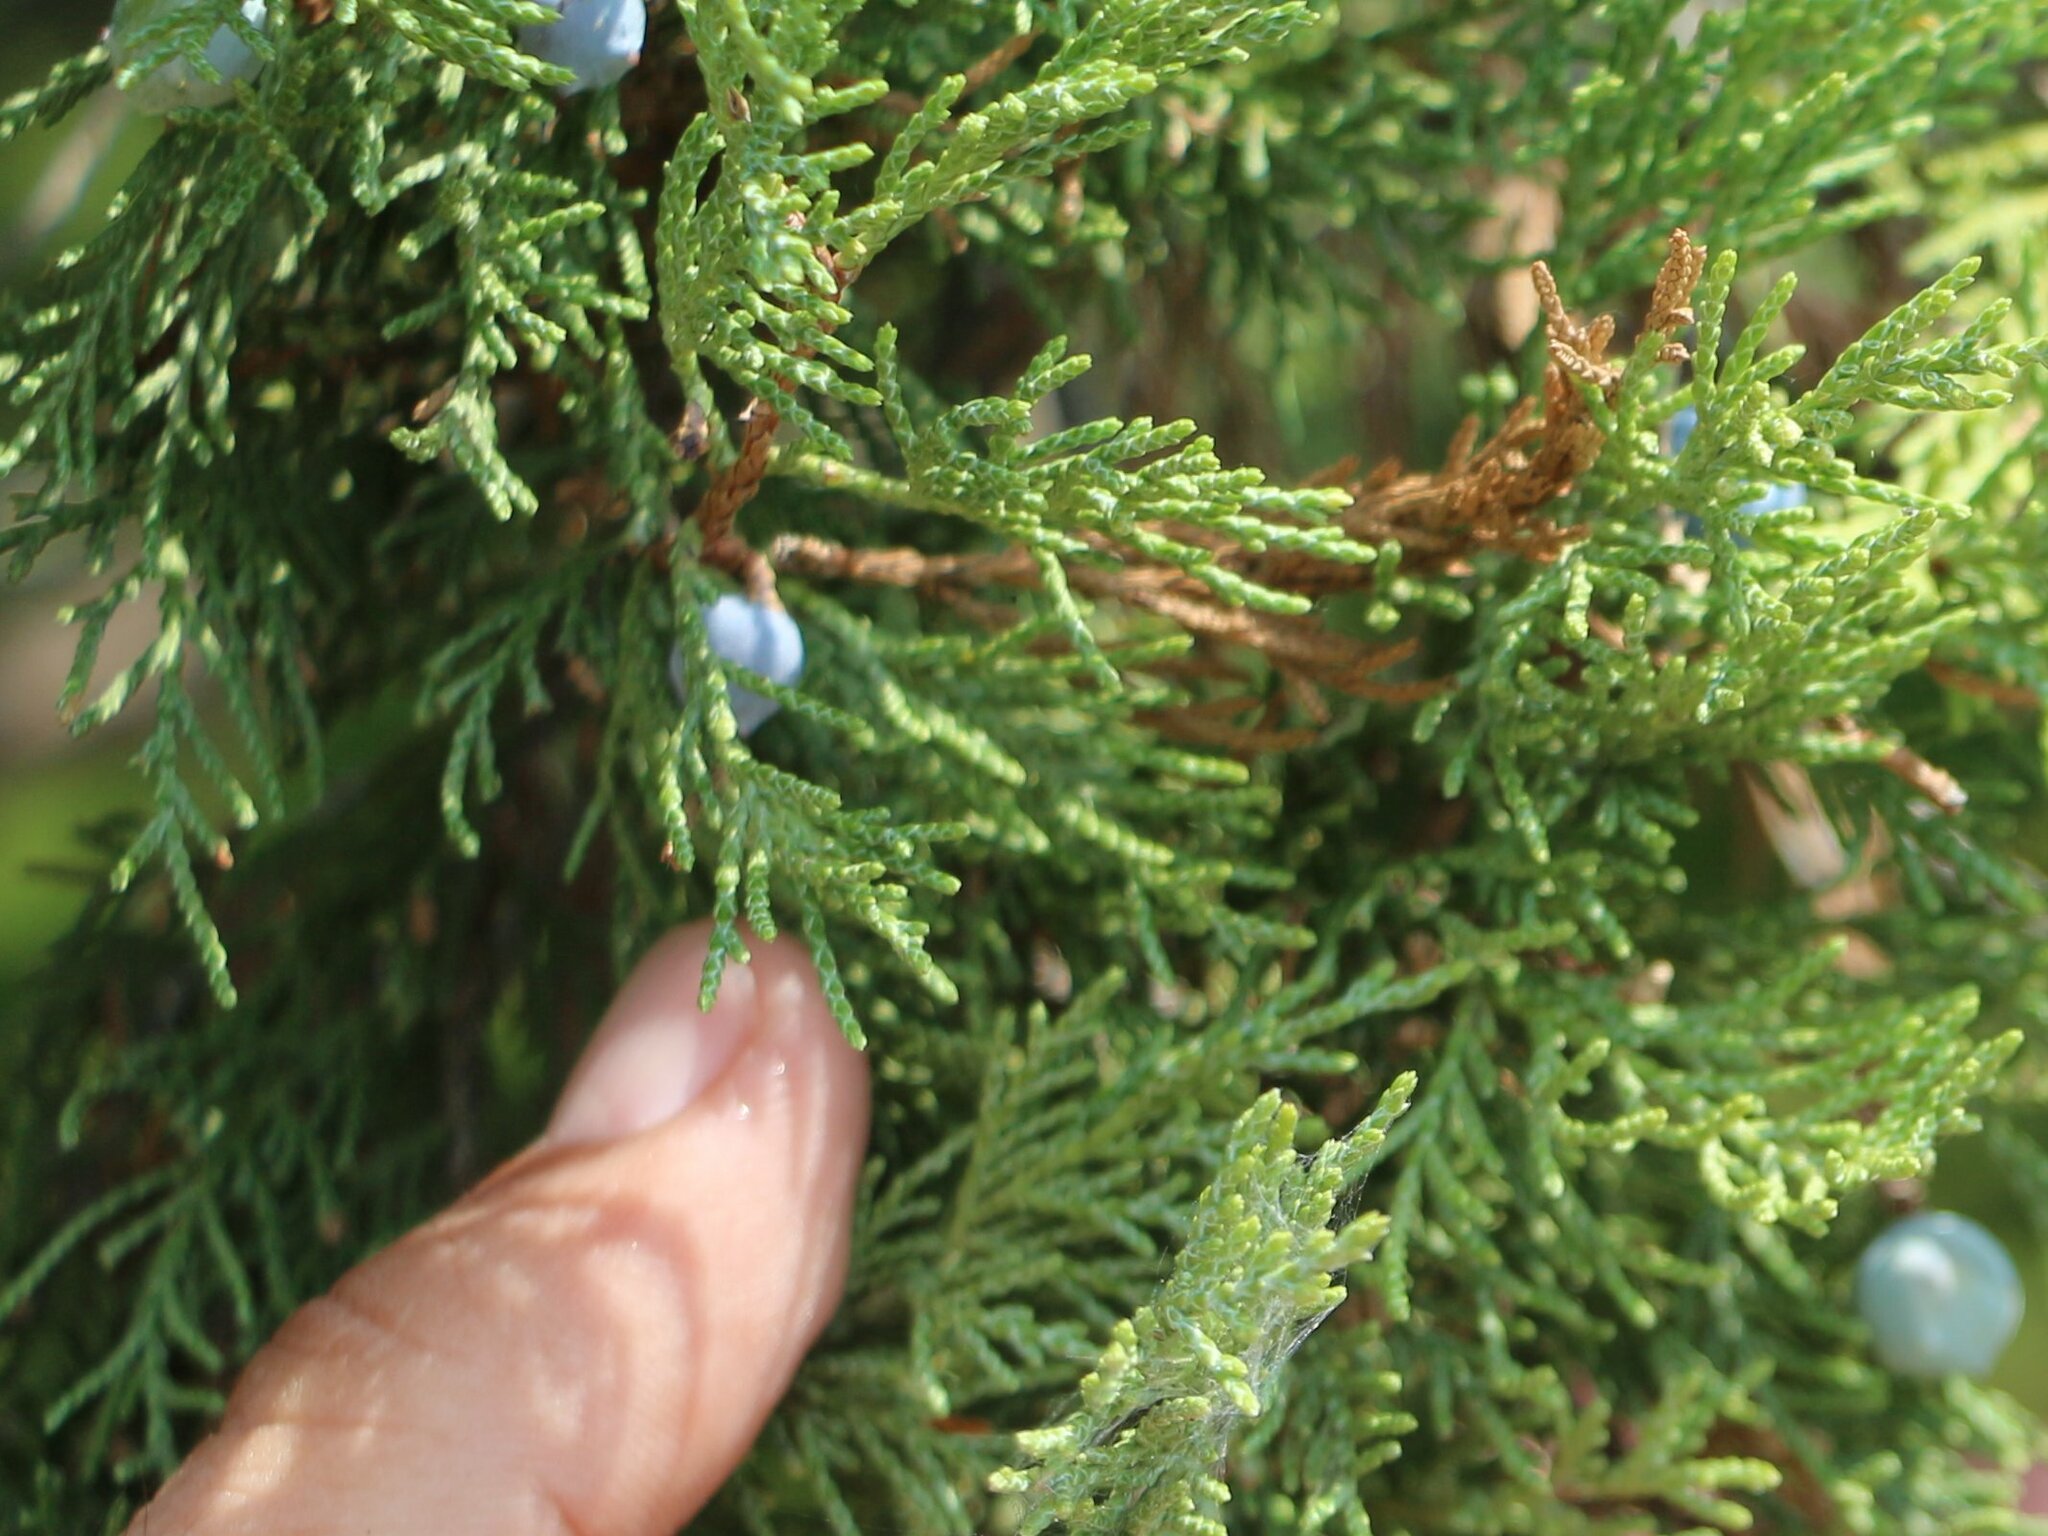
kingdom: Plantae
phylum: Tracheophyta
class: Pinopsida
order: Pinales
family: Cupressaceae
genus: Juniperus
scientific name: Juniperus excelsa
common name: Crimean juniper
